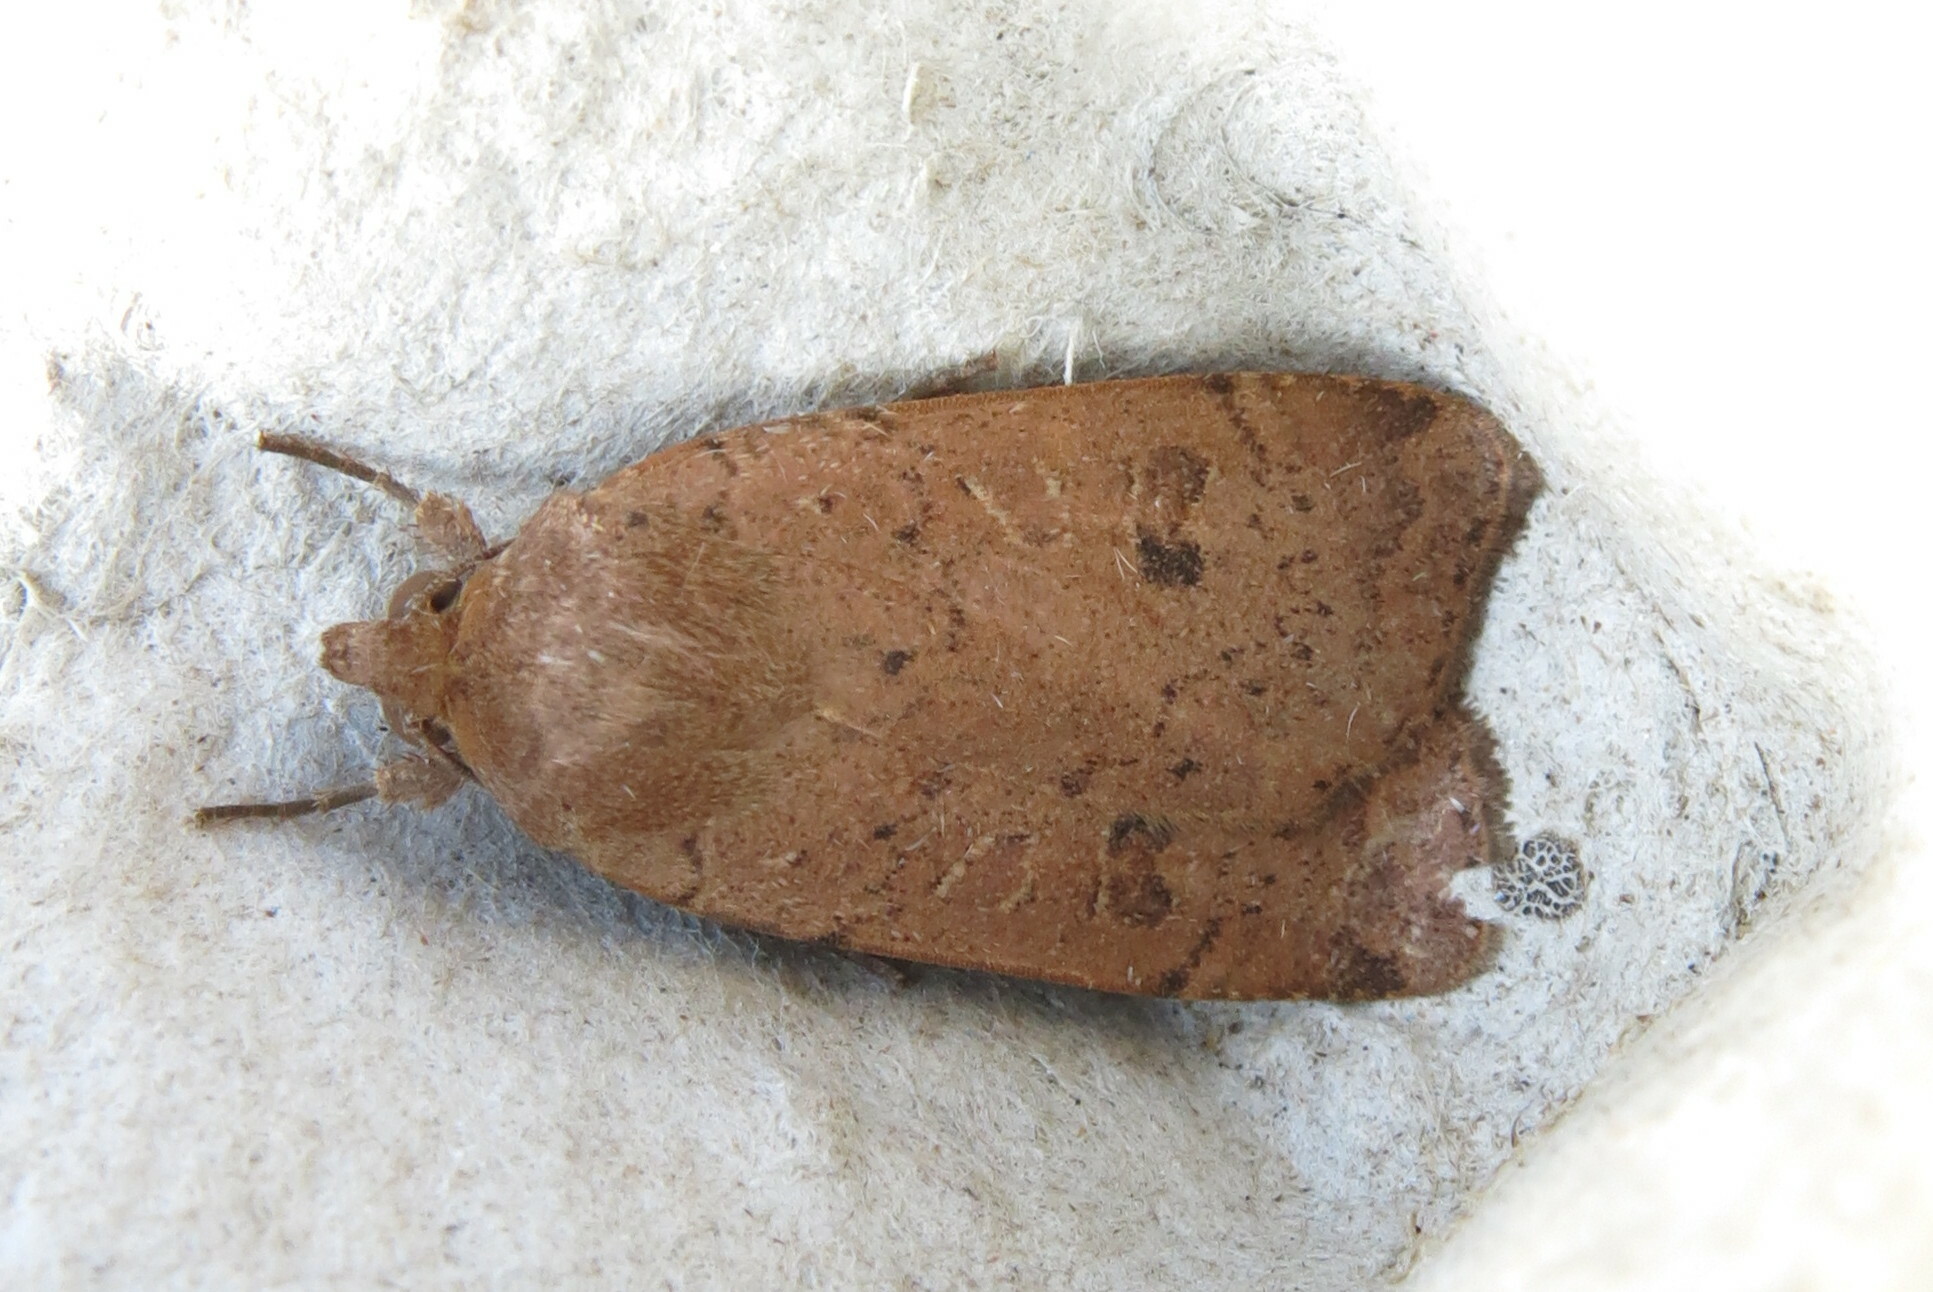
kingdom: Animalia
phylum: Arthropoda
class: Insecta
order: Lepidoptera
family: Noctuidae
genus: Noctua
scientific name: Noctua comes
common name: Lesser yellow underwing
